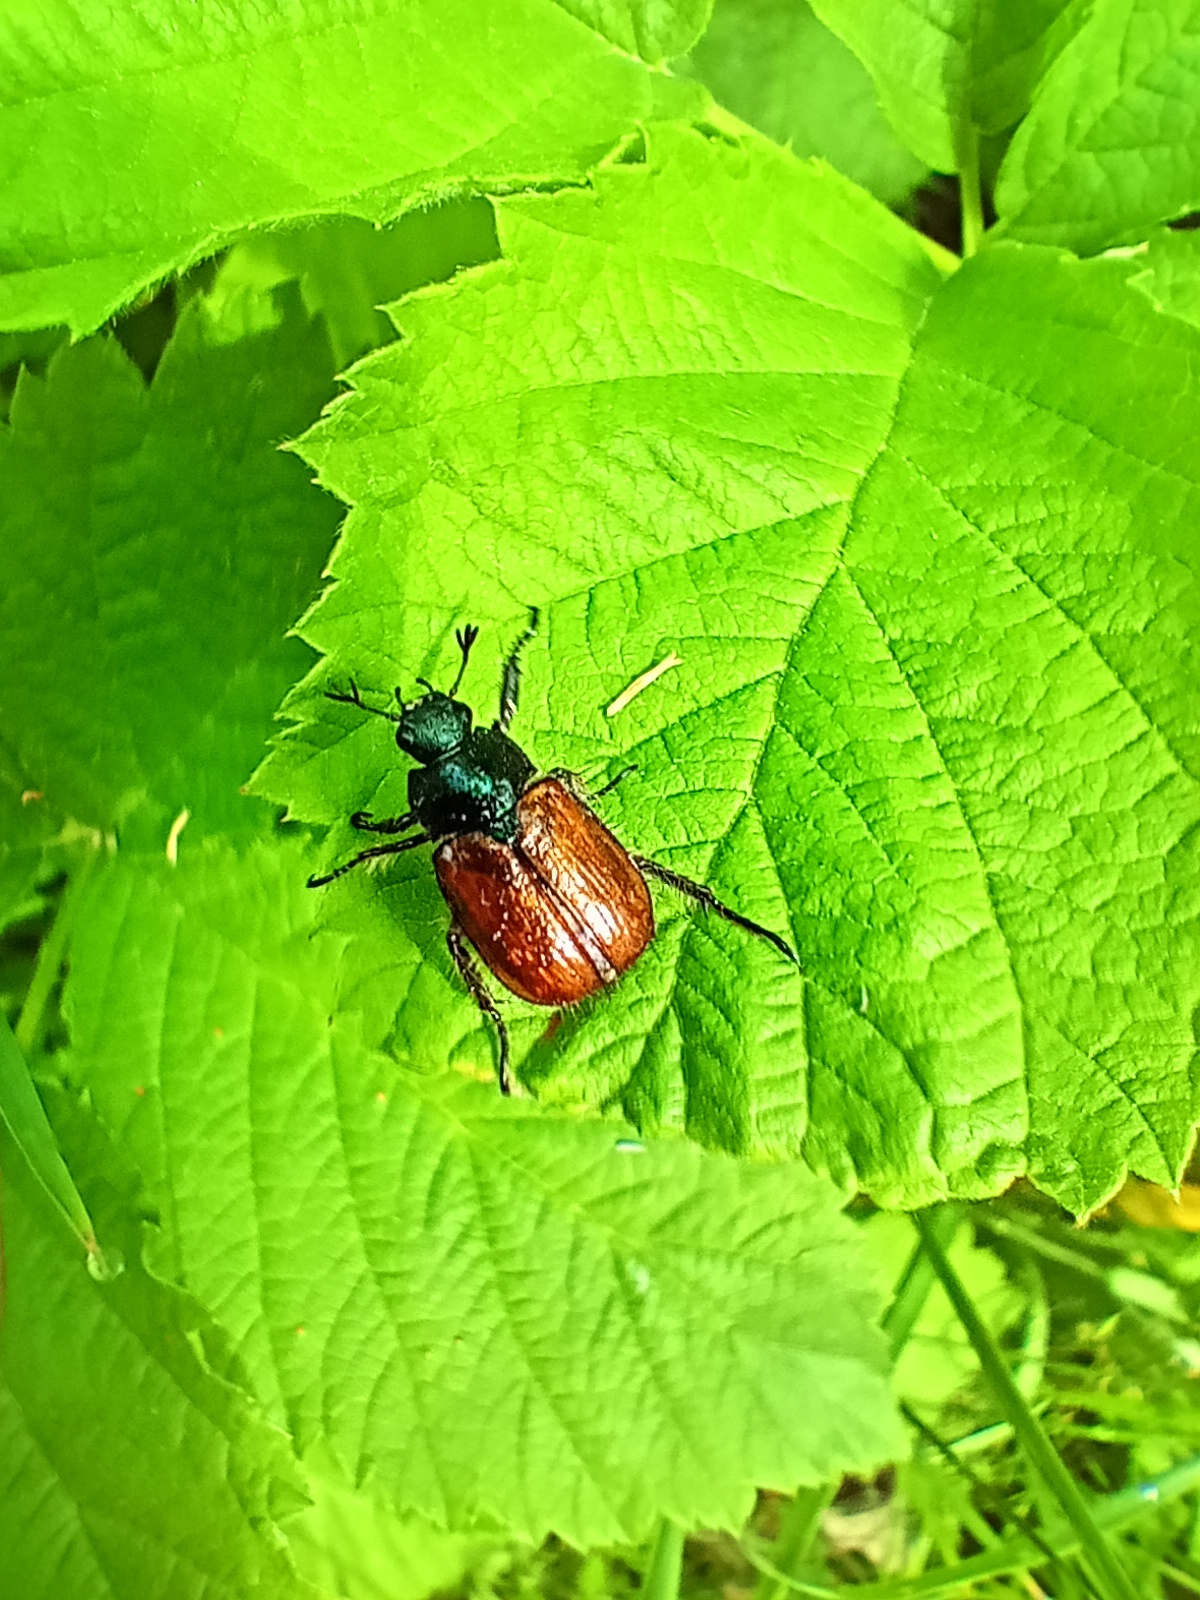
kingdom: Animalia
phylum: Arthropoda
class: Insecta
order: Coleoptera
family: Scarabaeidae
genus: Phyllopertha
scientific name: Phyllopertha horticola
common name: Garden chafer
